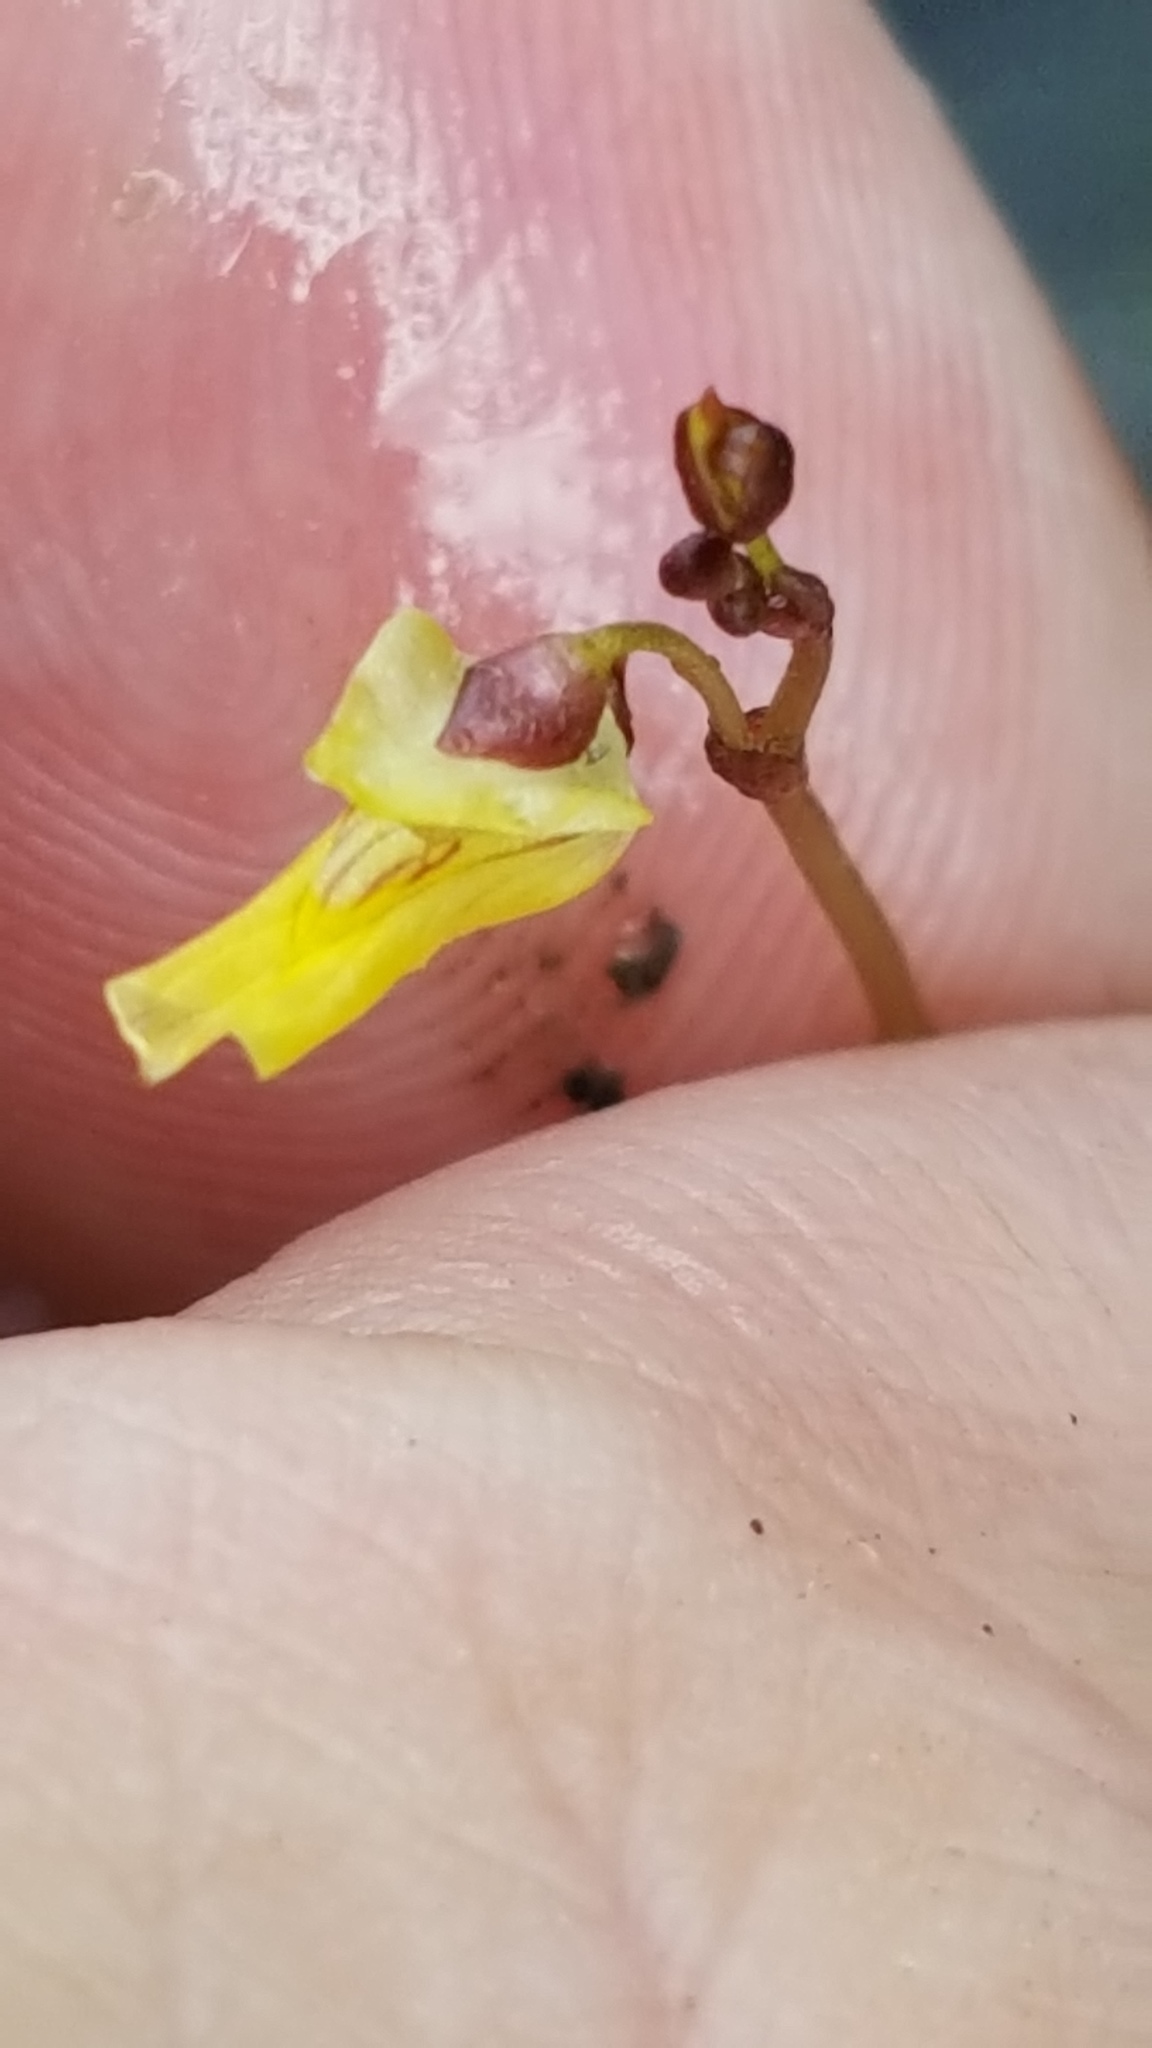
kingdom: Plantae
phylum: Tracheophyta
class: Magnoliopsida
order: Lamiales
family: Lentibulariaceae
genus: Utricularia
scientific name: Utricularia minor
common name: Lesser bladderwort
